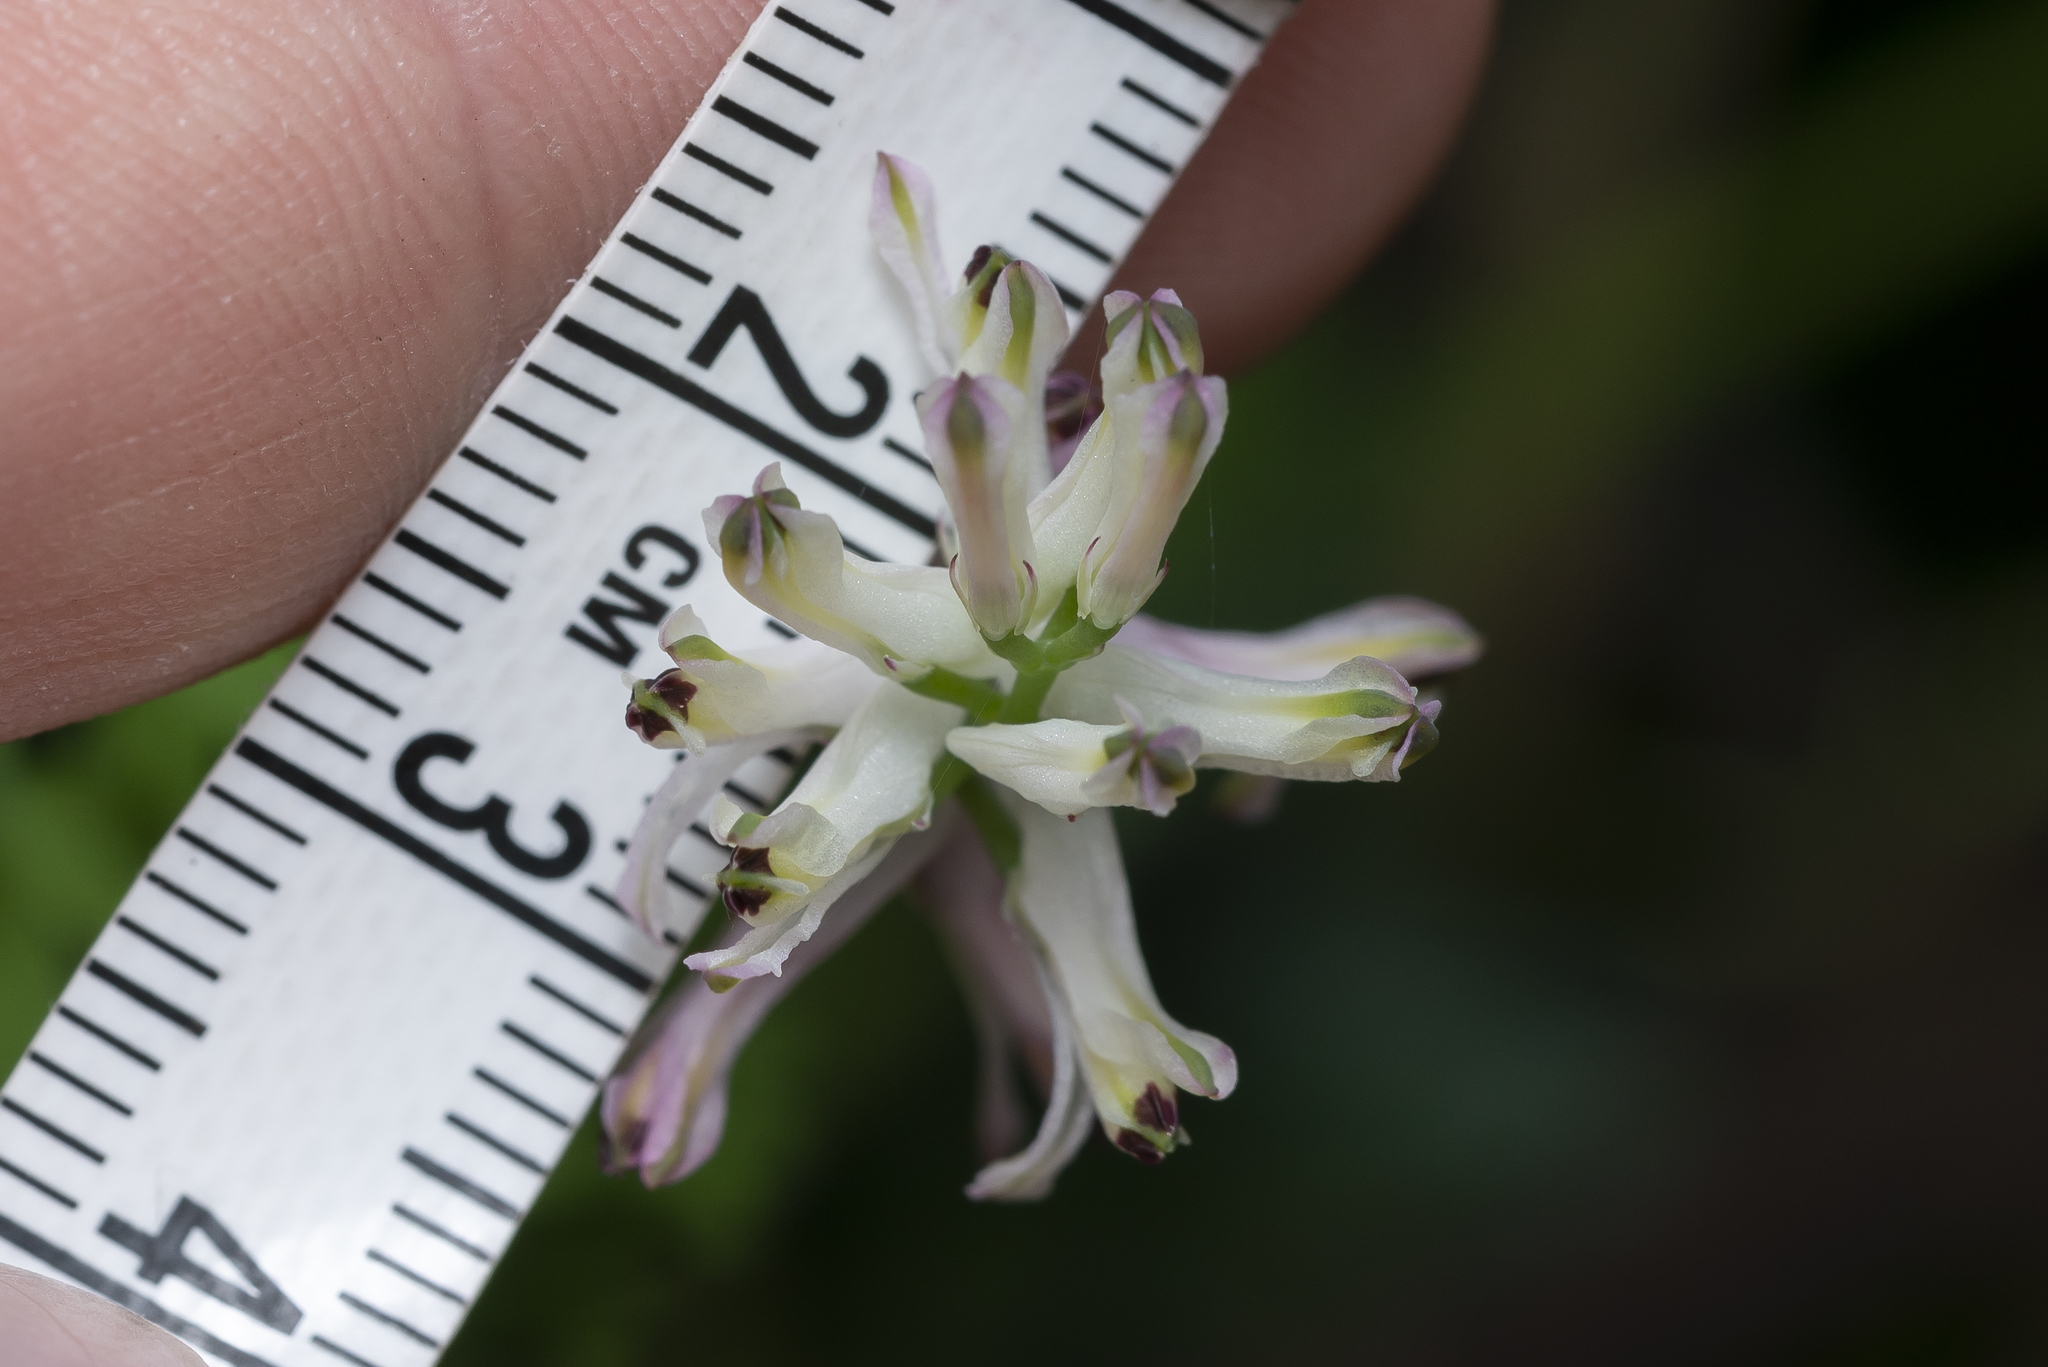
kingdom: Plantae
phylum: Tracheophyta
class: Magnoliopsida
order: Ranunculales
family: Papaveraceae
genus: Fumaria
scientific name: Fumaria judaica
